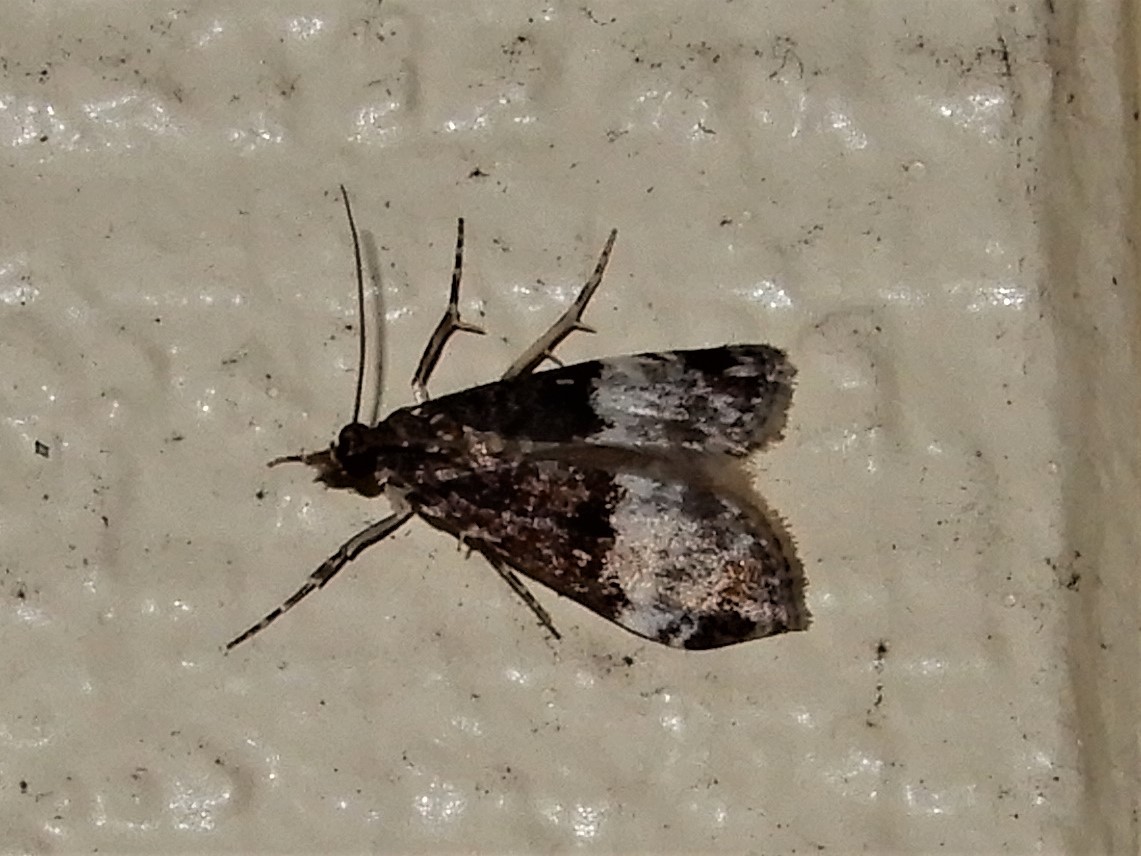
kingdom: Animalia
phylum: Arthropoda
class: Insecta
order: Lepidoptera
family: Crambidae
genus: Scoparia
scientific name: Scoparia minusculalis
